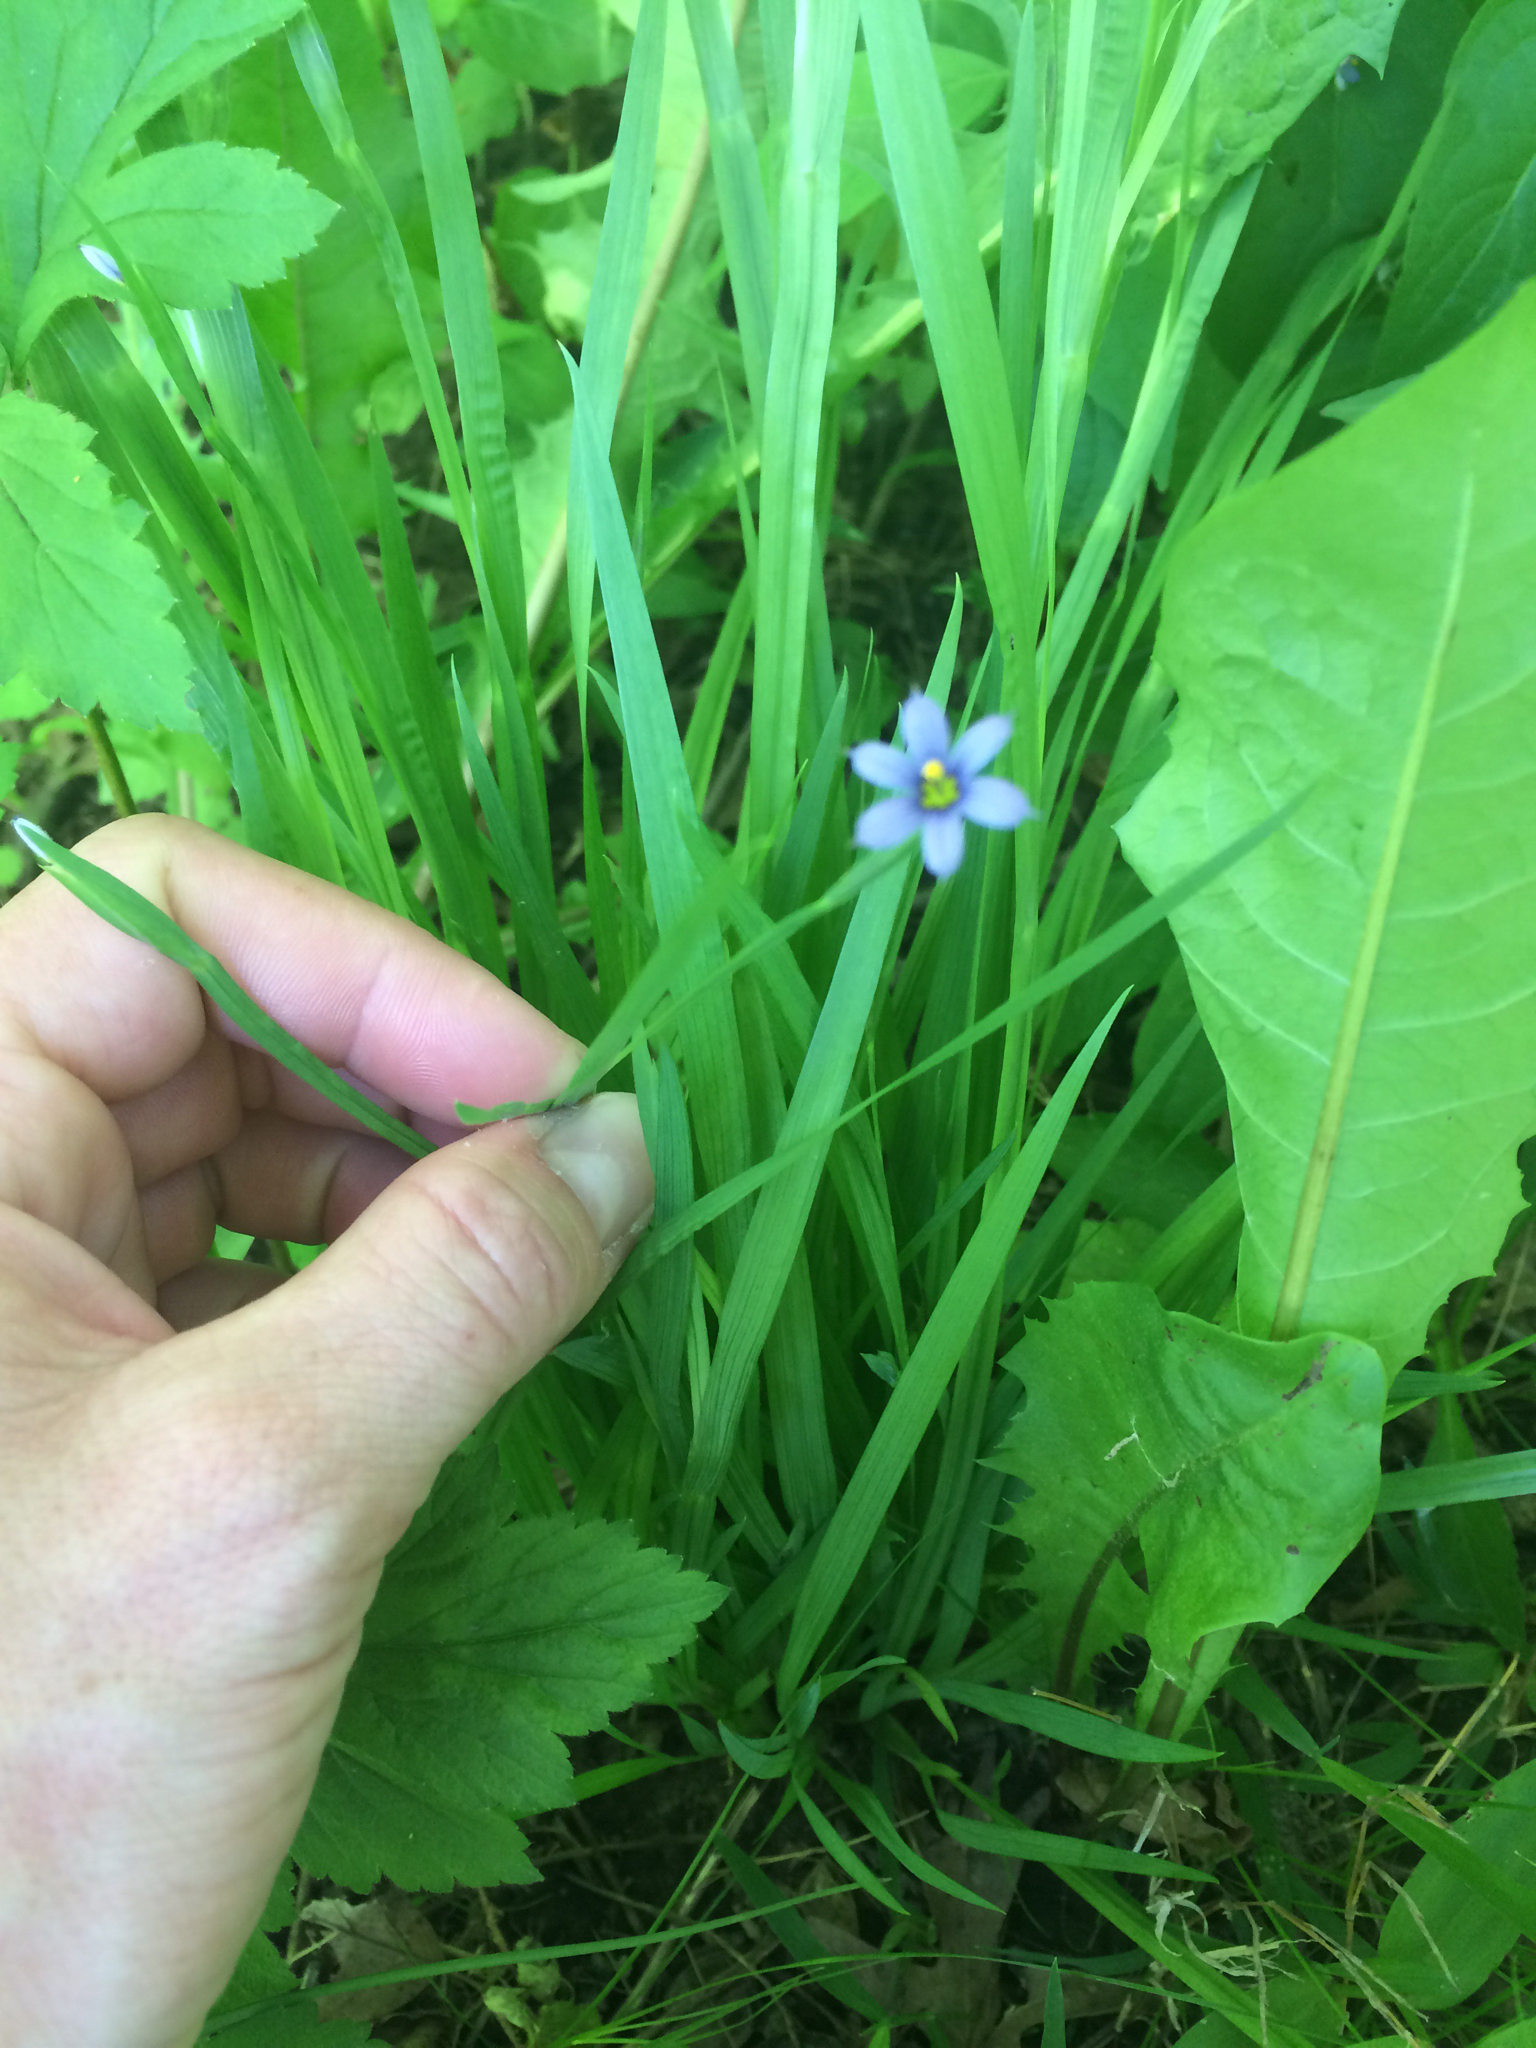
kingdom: Plantae
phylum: Tracheophyta
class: Liliopsida
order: Asparagales
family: Iridaceae
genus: Sisyrinchium
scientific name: Sisyrinchium angustifolium
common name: Narrow-leaf blue-eyed-grass
